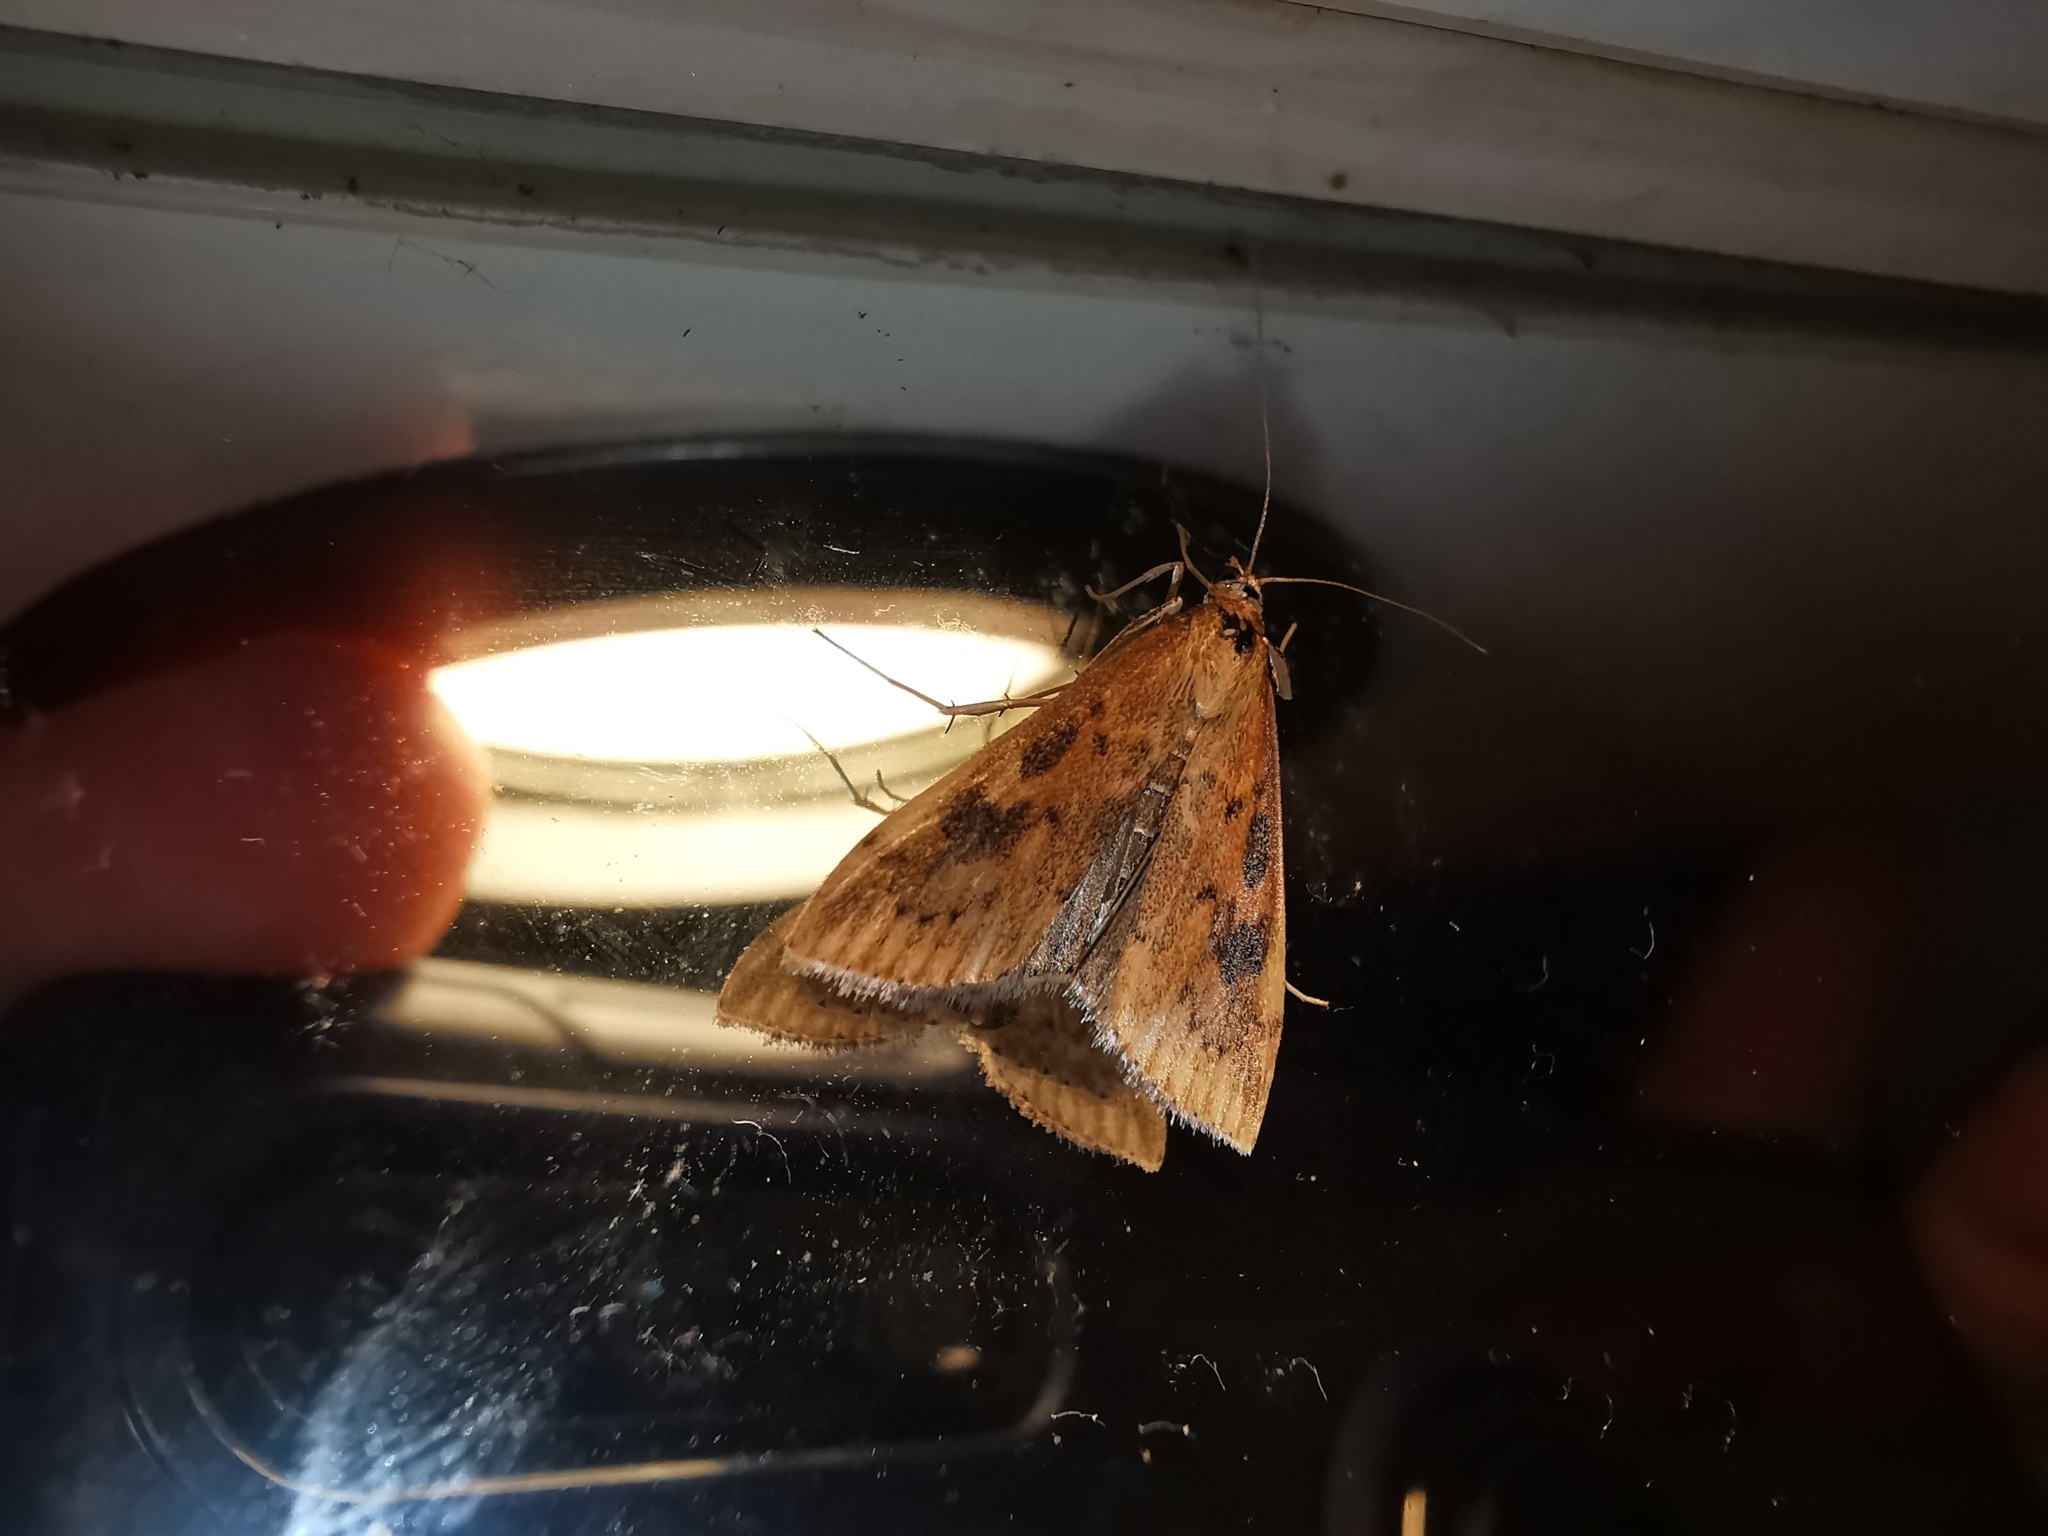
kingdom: Animalia
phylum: Arthropoda
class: Insecta
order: Lepidoptera
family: Crambidae
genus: Udea
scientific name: Udea ferrugalis
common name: Rusty dot
